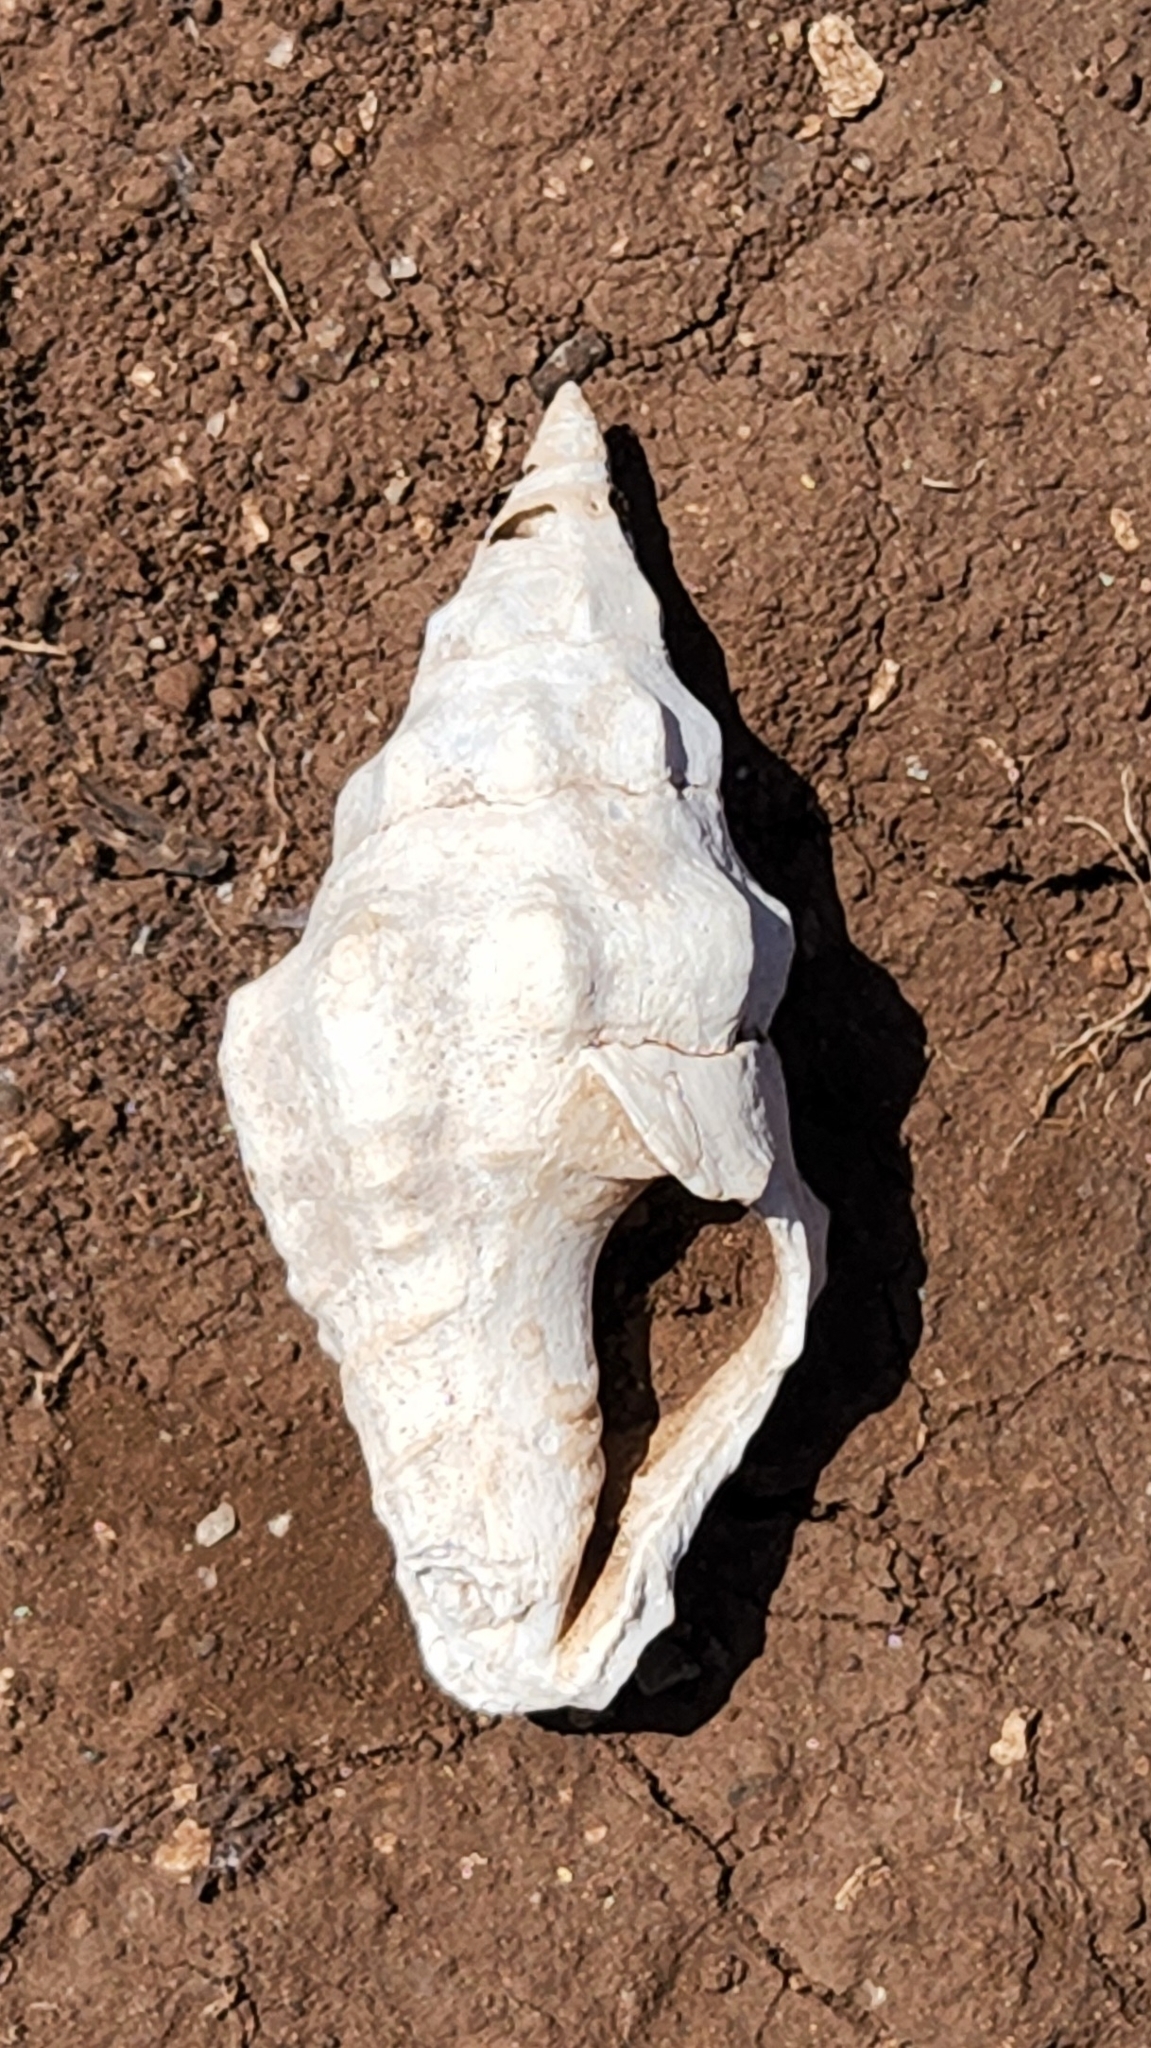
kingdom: Animalia
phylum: Mollusca
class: Gastropoda
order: Neogastropoda
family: Fasciolariidae
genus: Polygona
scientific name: Polygona socorroensis
